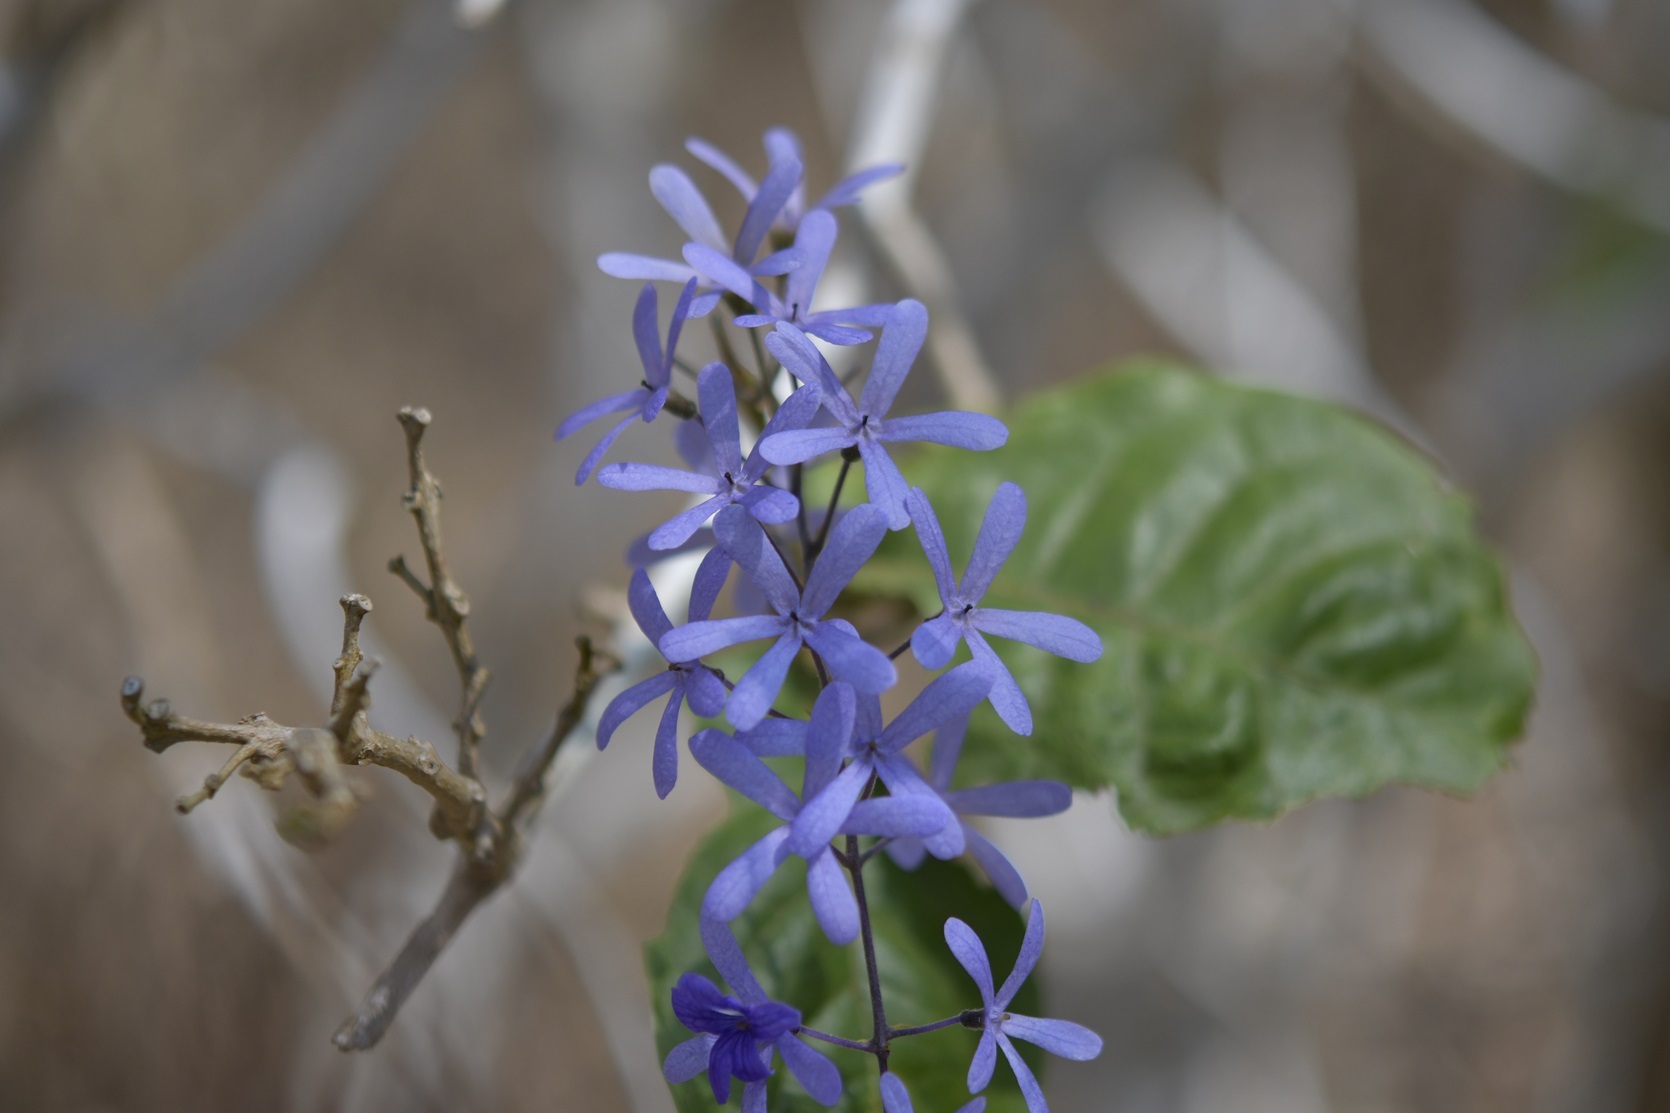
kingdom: Plantae
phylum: Tracheophyta
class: Magnoliopsida
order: Lamiales
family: Verbenaceae
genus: Petrea
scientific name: Petrea volubilis
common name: Queen's-wreath
